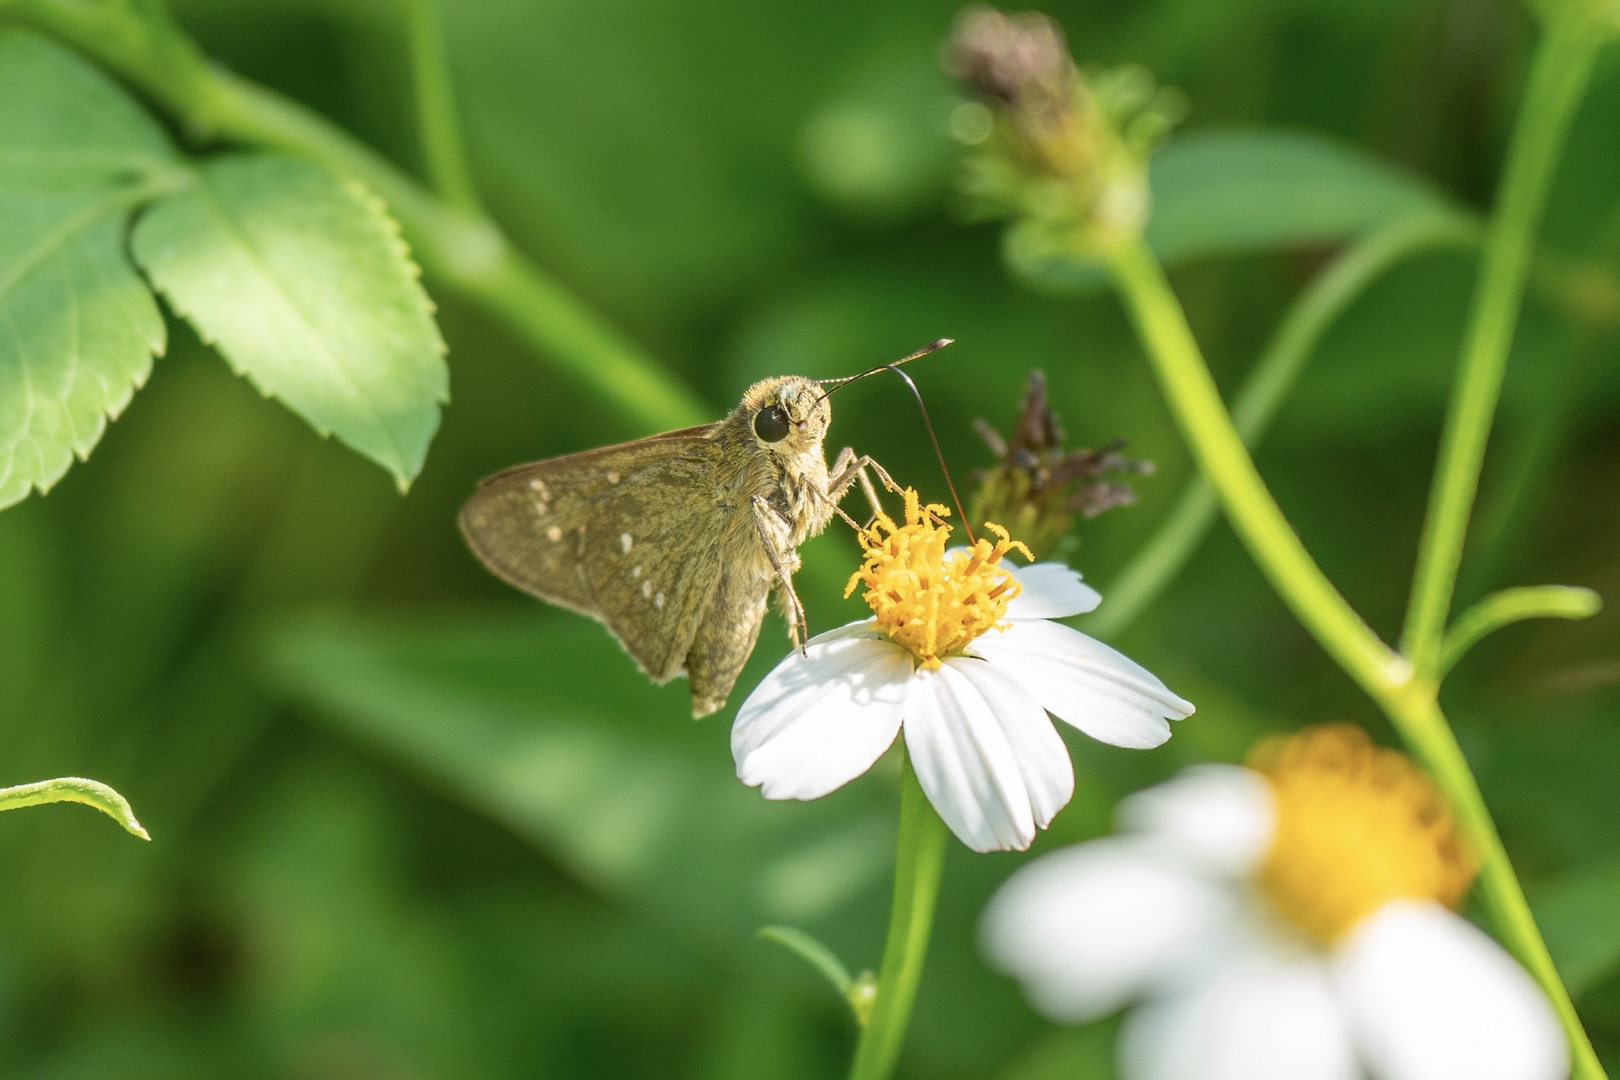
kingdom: Animalia
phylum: Arthropoda
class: Insecta
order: Lepidoptera
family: Hesperiidae
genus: Borbo
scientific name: Borbo cinnara
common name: Formosan swift
